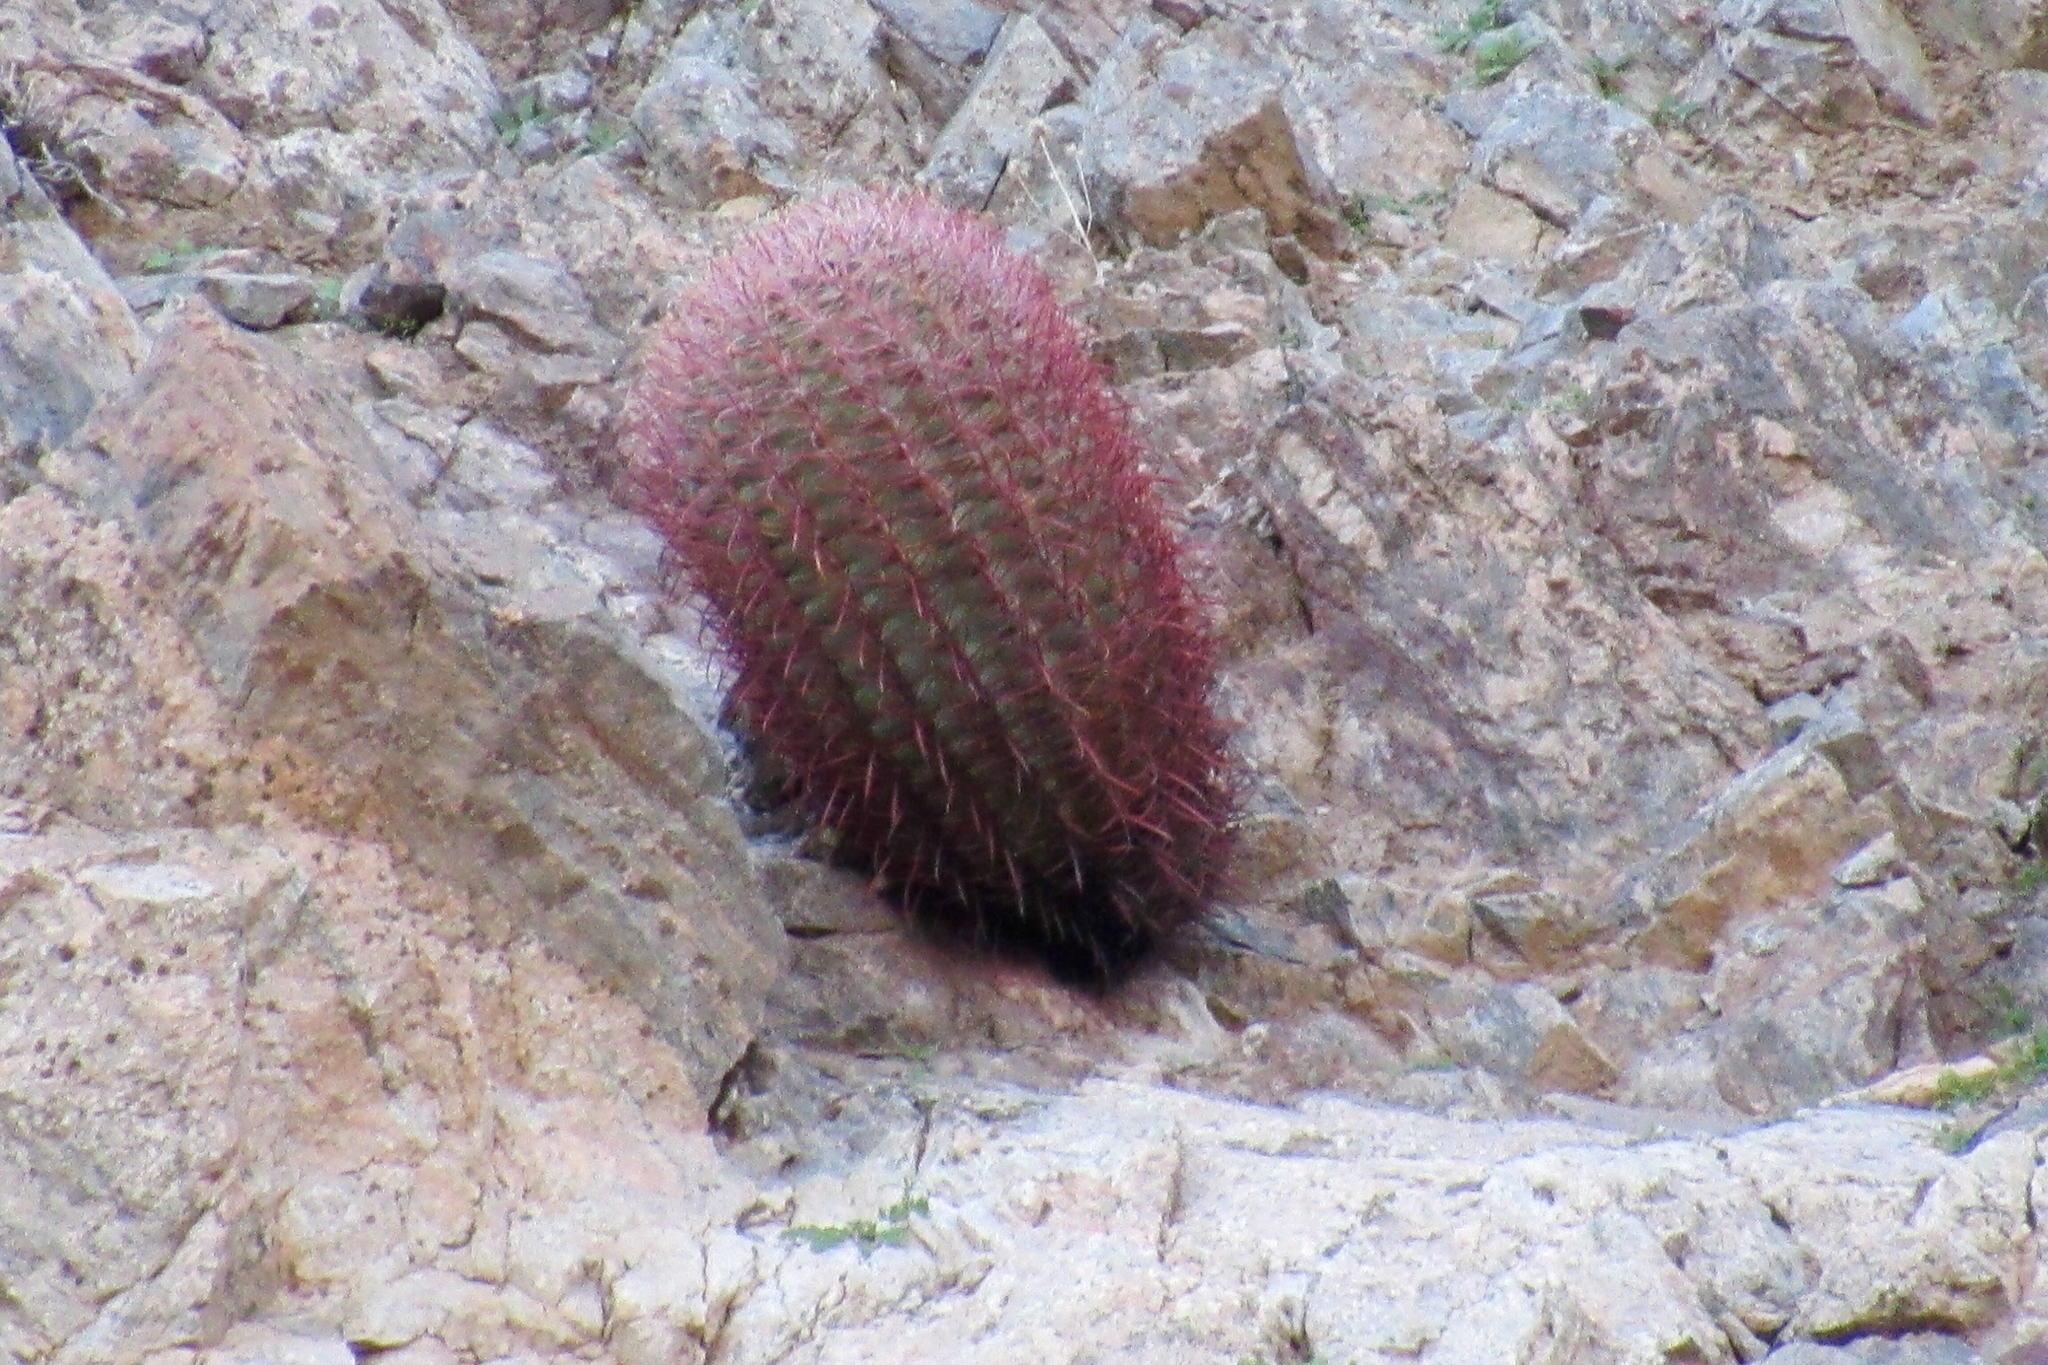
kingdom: Plantae
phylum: Tracheophyta
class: Magnoliopsida
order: Caryophyllales
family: Cactaceae
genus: Ferocactus
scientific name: Ferocactus cylindraceus
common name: California barrel cactus
